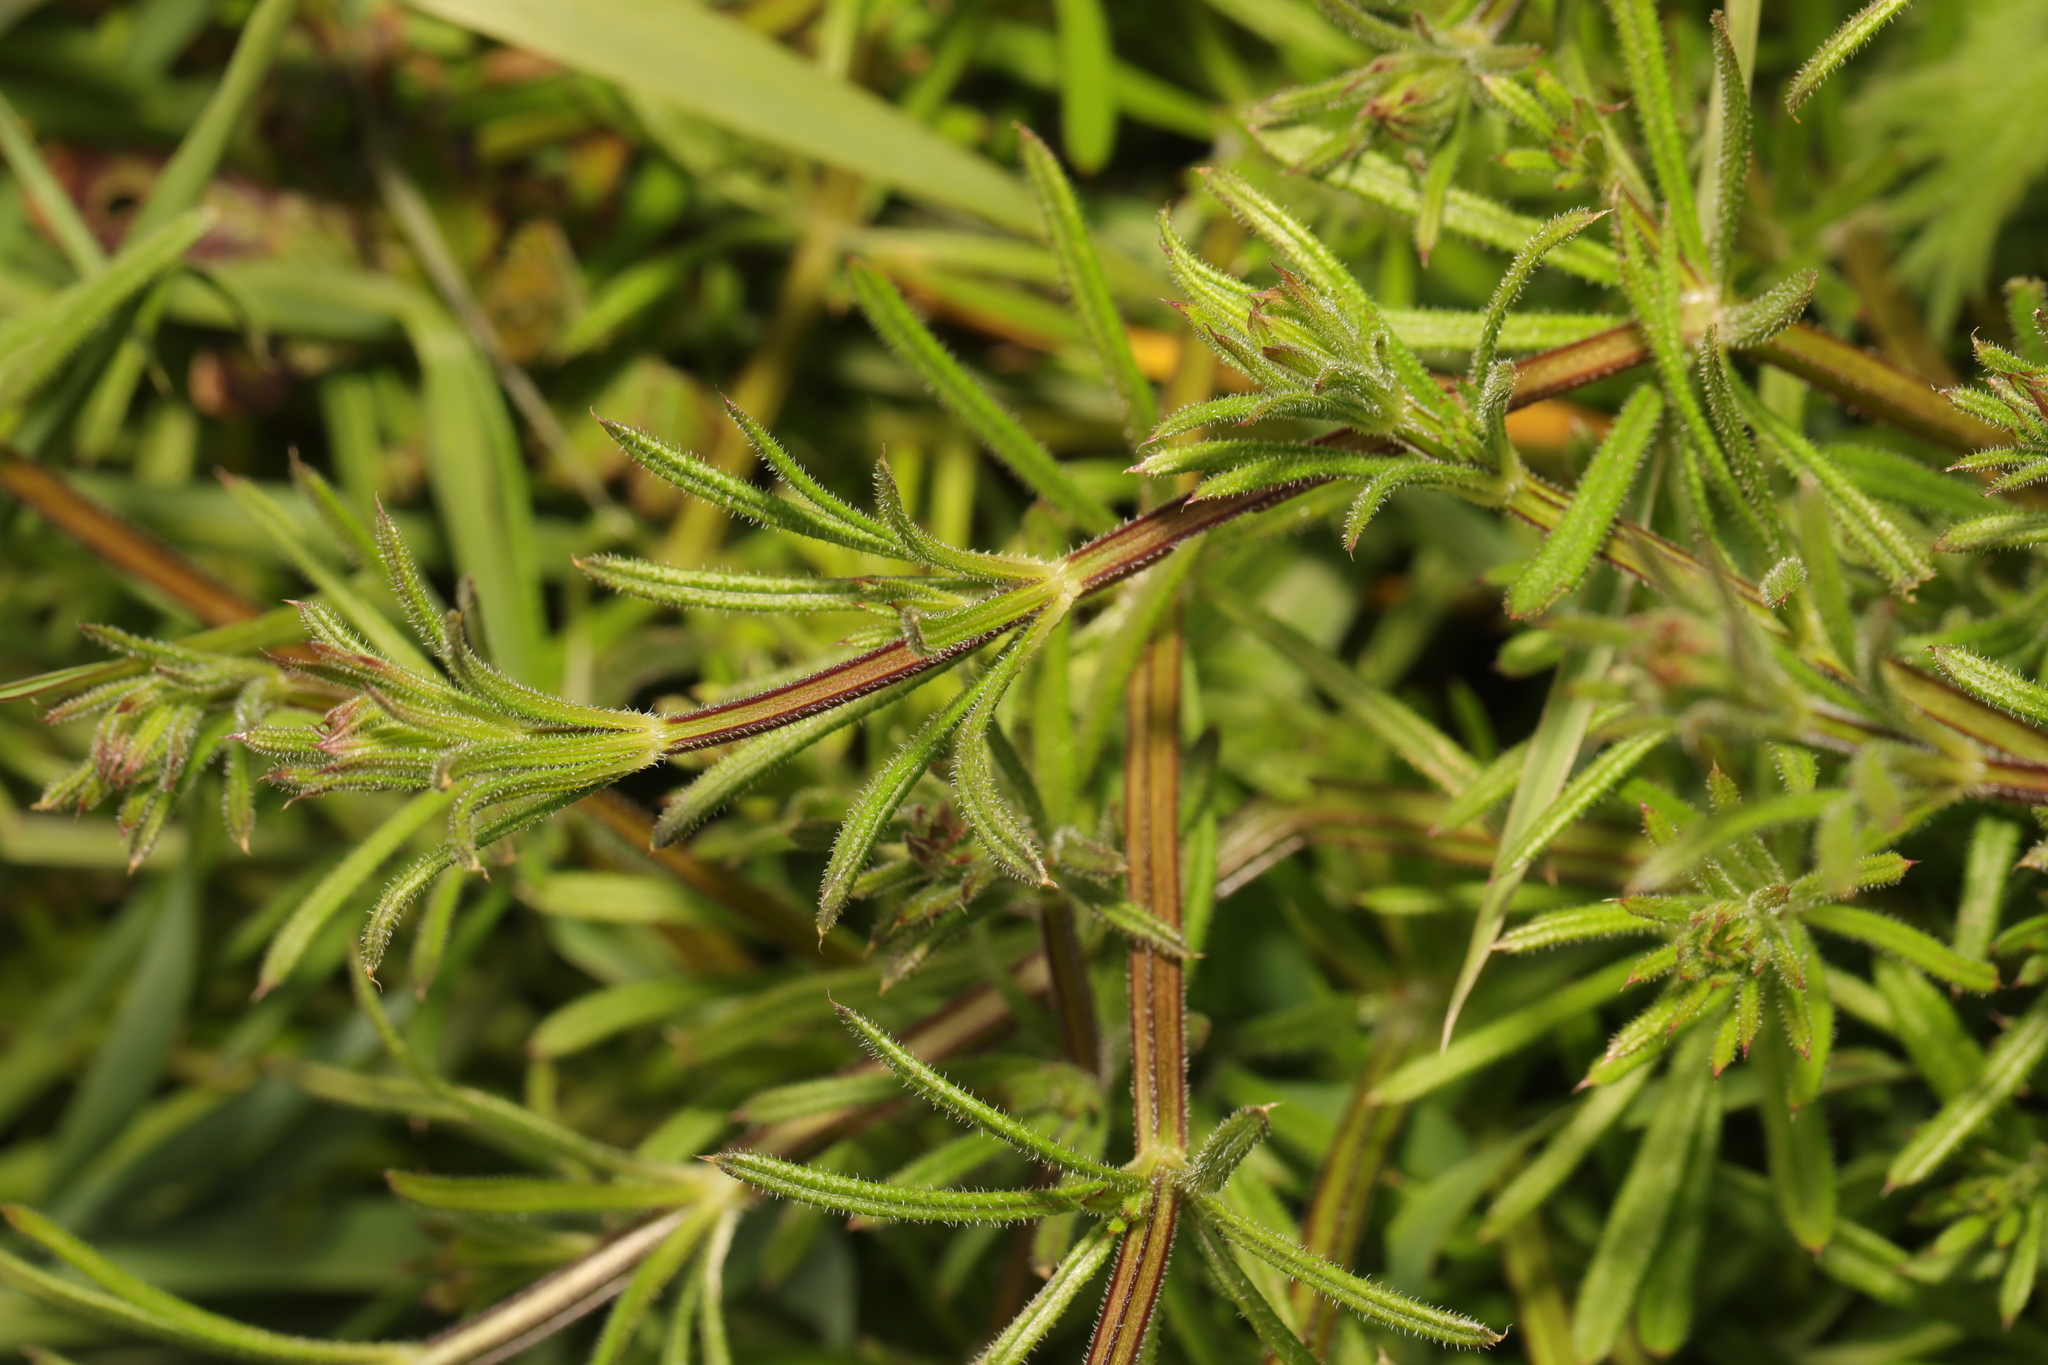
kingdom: Plantae
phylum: Tracheophyta
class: Magnoliopsida
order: Gentianales
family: Rubiaceae
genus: Galium
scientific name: Galium aparine
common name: Cleavers
